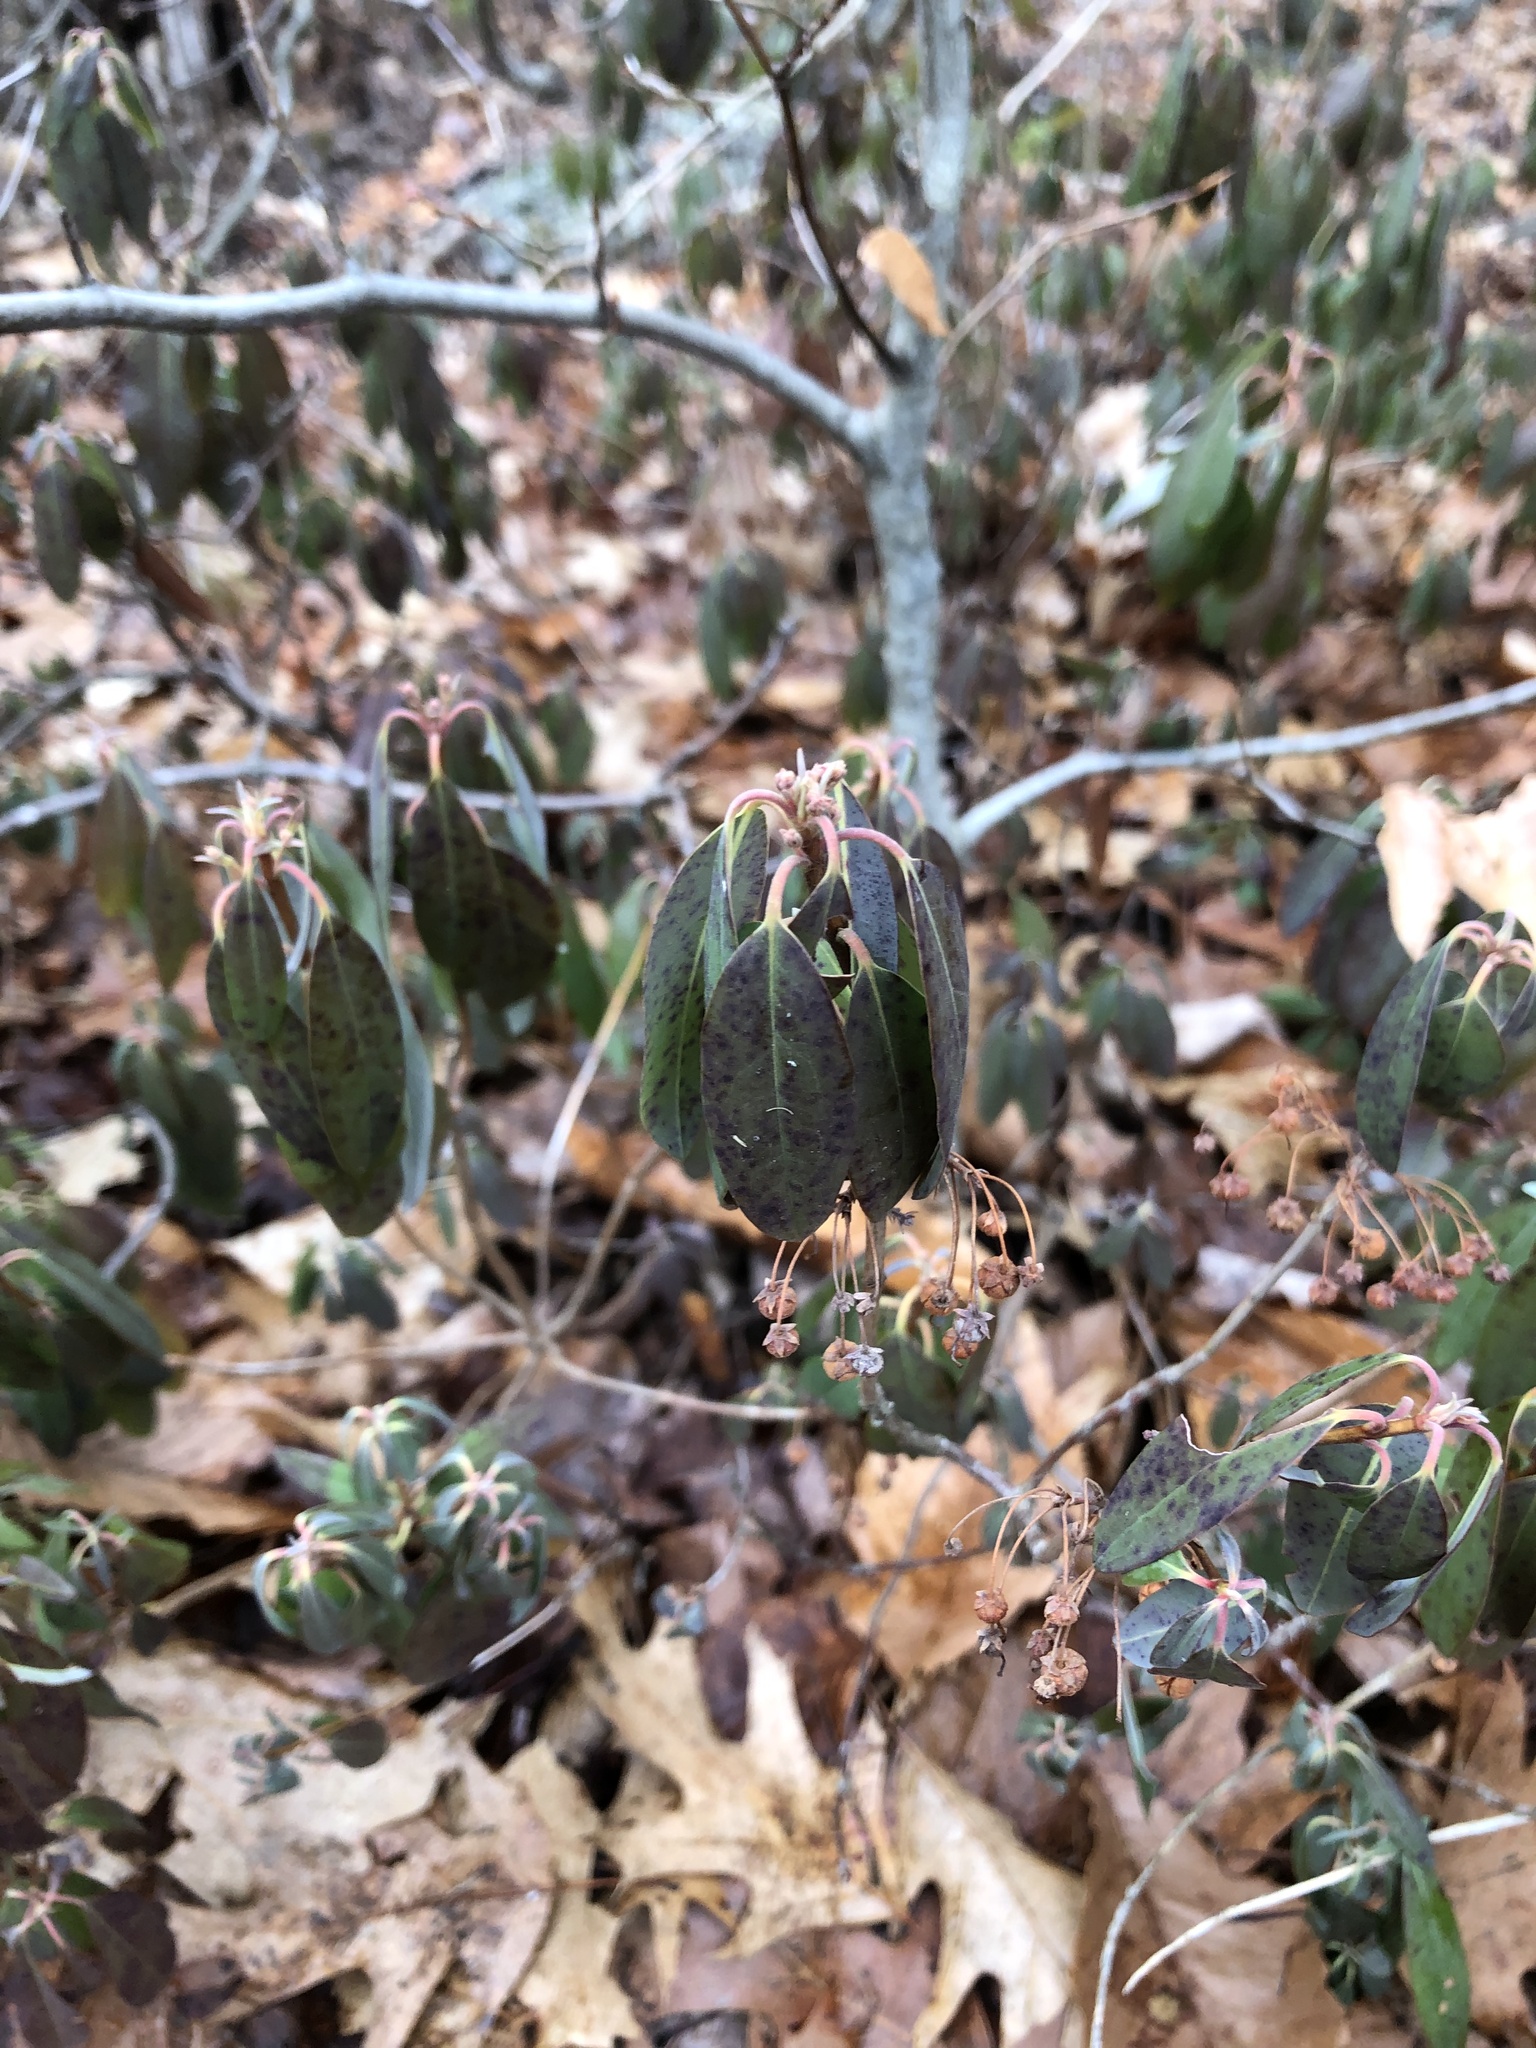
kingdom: Plantae
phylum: Tracheophyta
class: Magnoliopsida
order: Ericales
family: Ericaceae
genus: Kalmia
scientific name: Kalmia angustifolia
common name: Sheep-laurel
